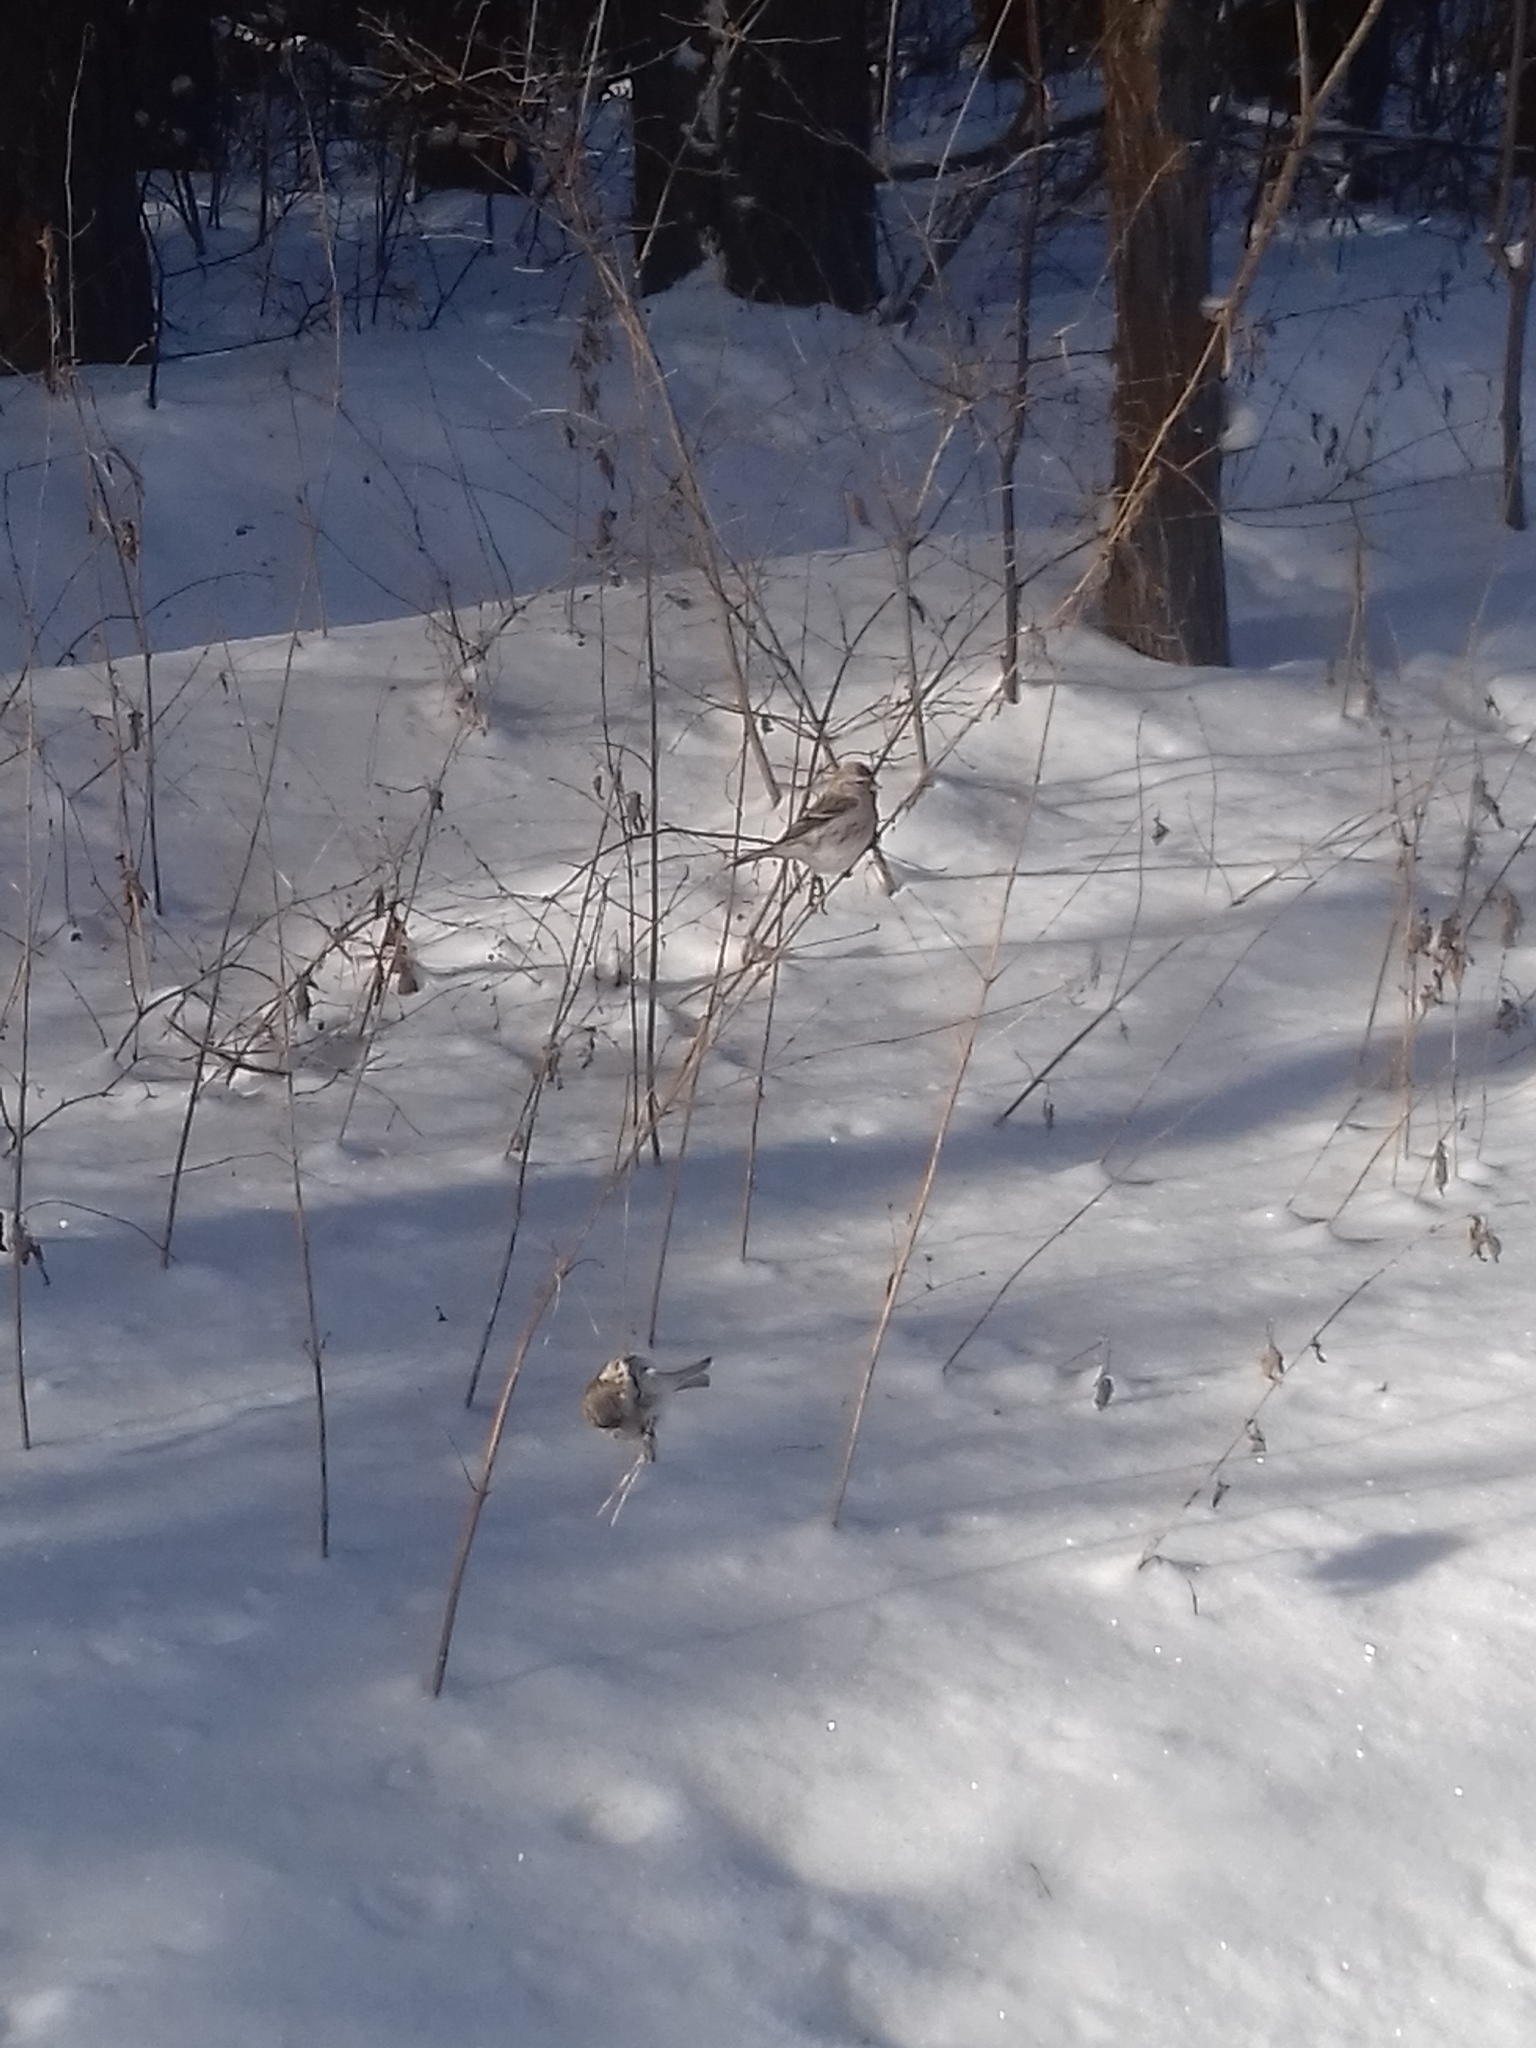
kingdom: Animalia
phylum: Chordata
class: Aves
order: Passeriformes
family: Fringillidae
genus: Acanthis
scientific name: Acanthis flammea
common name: Common redpoll
